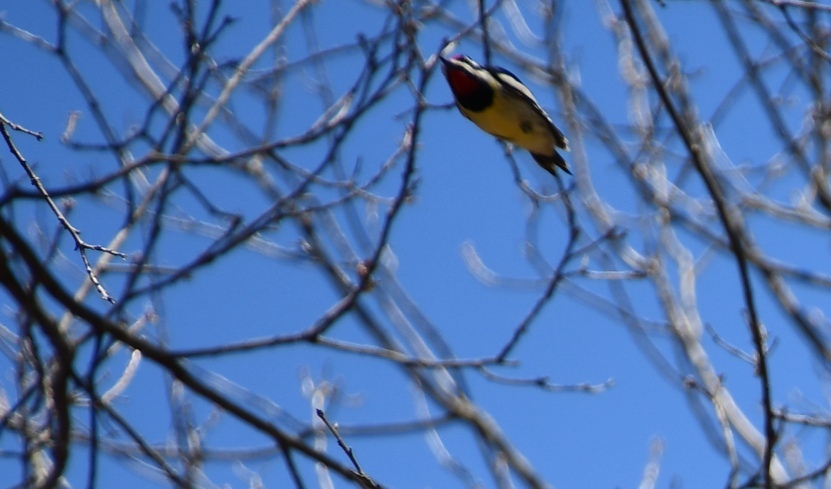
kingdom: Animalia
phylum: Chordata
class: Aves
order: Piciformes
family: Picidae
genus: Sphyrapicus
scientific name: Sphyrapicus varius
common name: Yellow-bellied sapsucker
